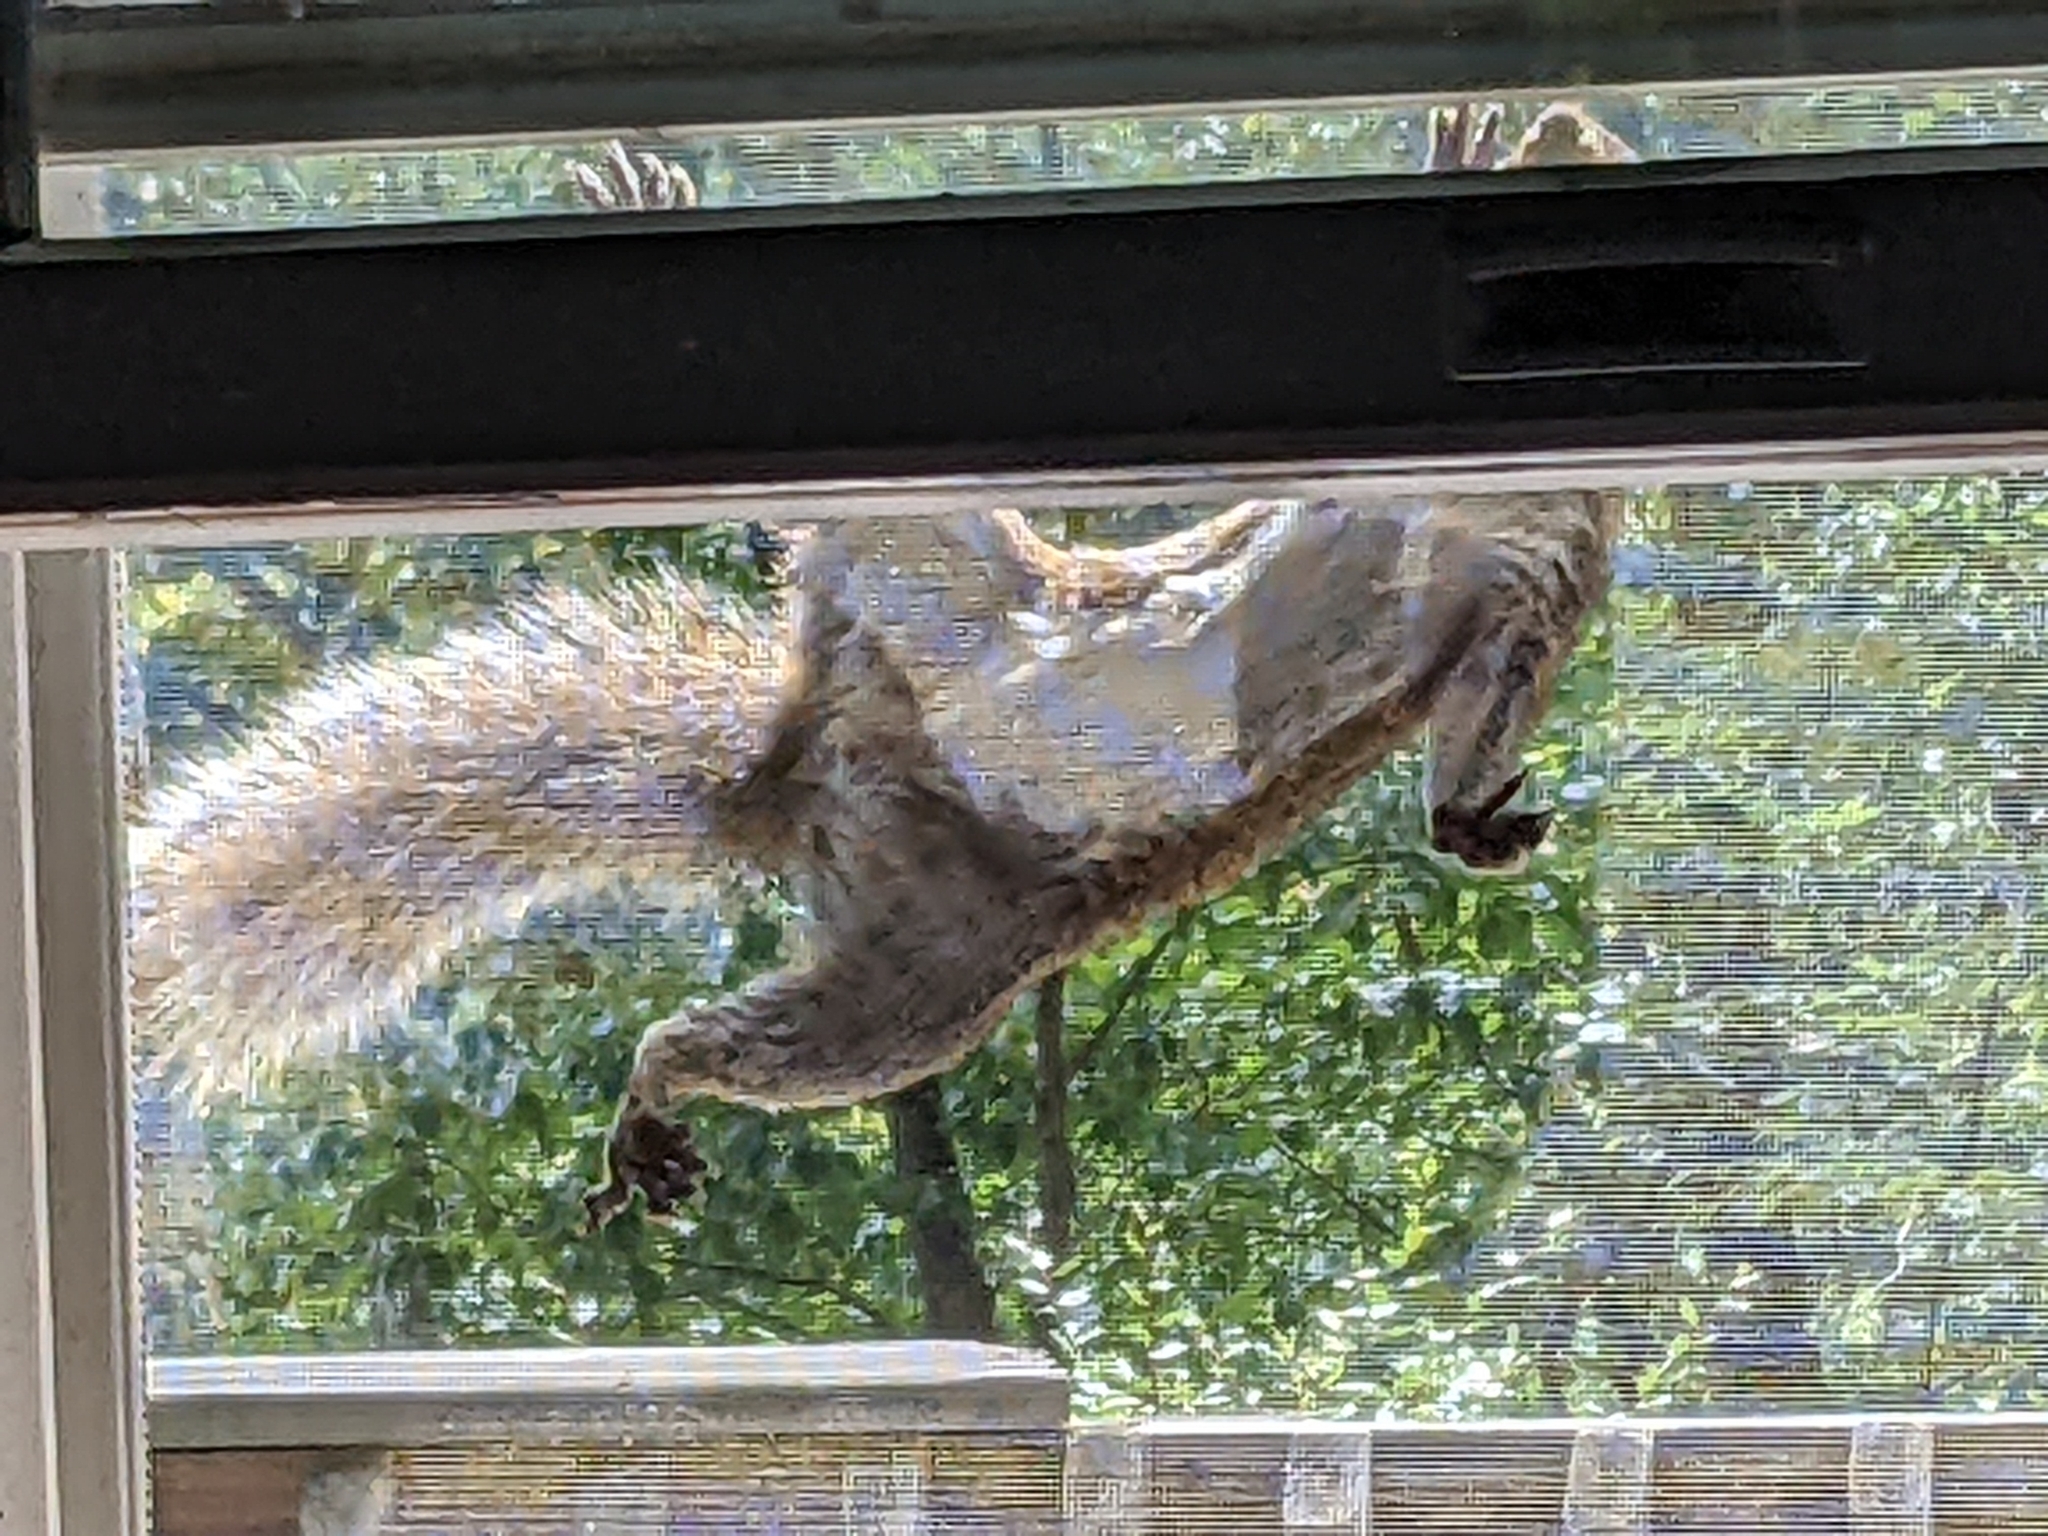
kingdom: Animalia
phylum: Chordata
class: Mammalia
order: Rodentia
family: Sciuridae
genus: Sciurus
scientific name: Sciurus carolinensis
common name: Eastern gray squirrel
